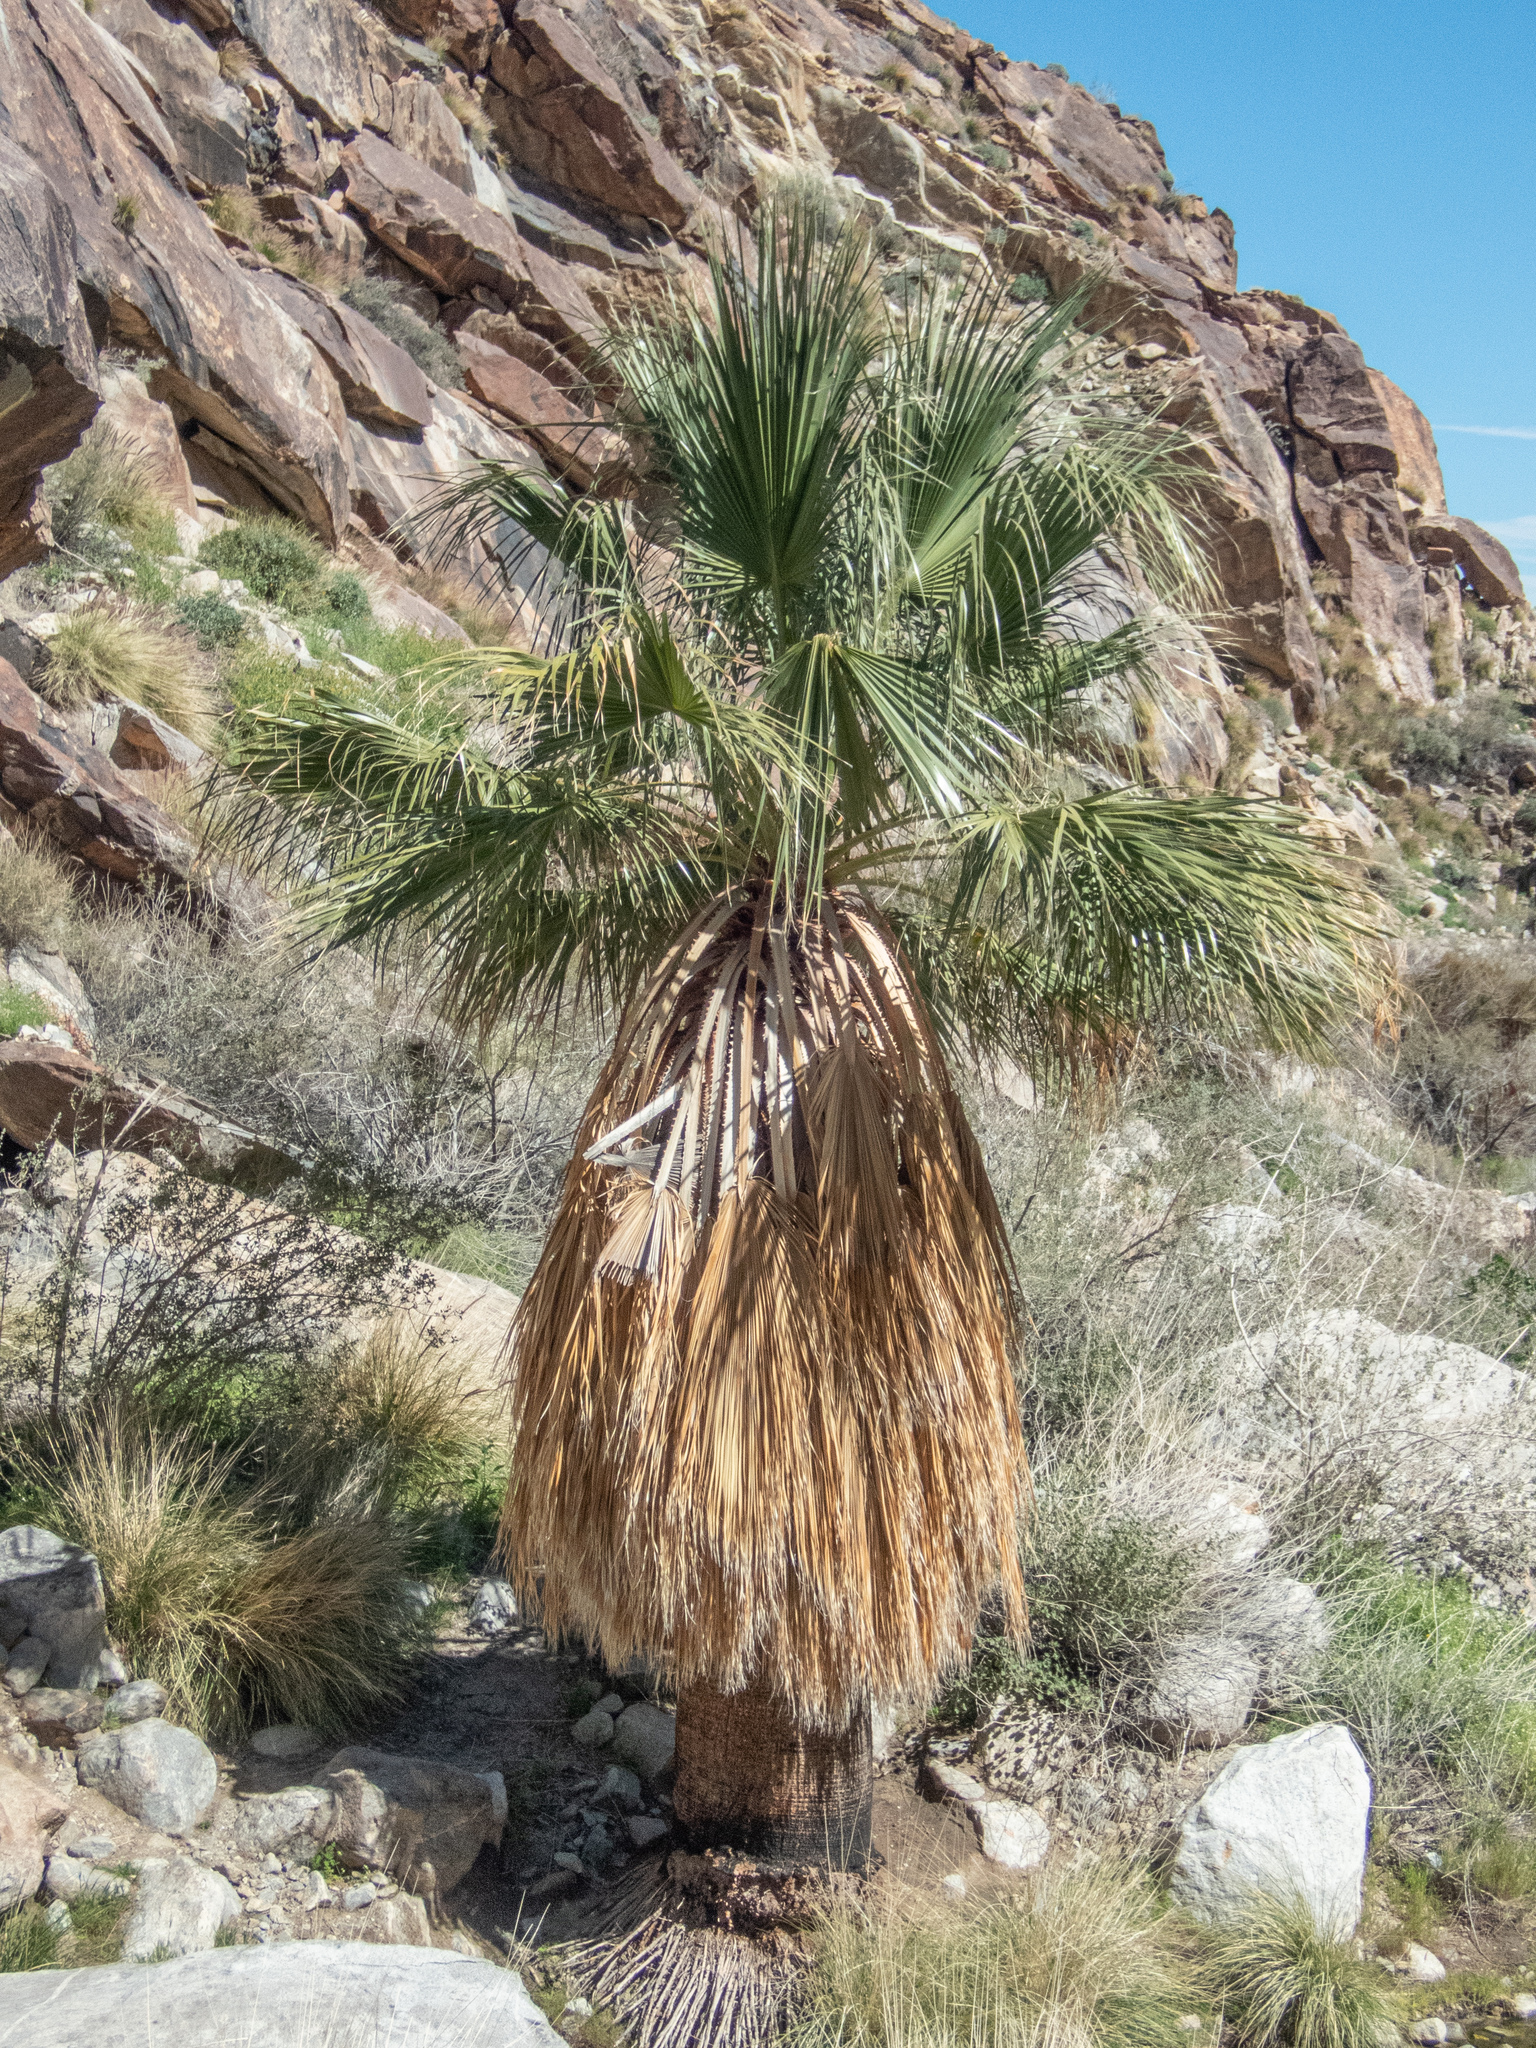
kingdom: Plantae
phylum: Tracheophyta
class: Liliopsida
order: Arecales
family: Arecaceae
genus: Washingtonia
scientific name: Washingtonia filifera
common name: California fan palm
